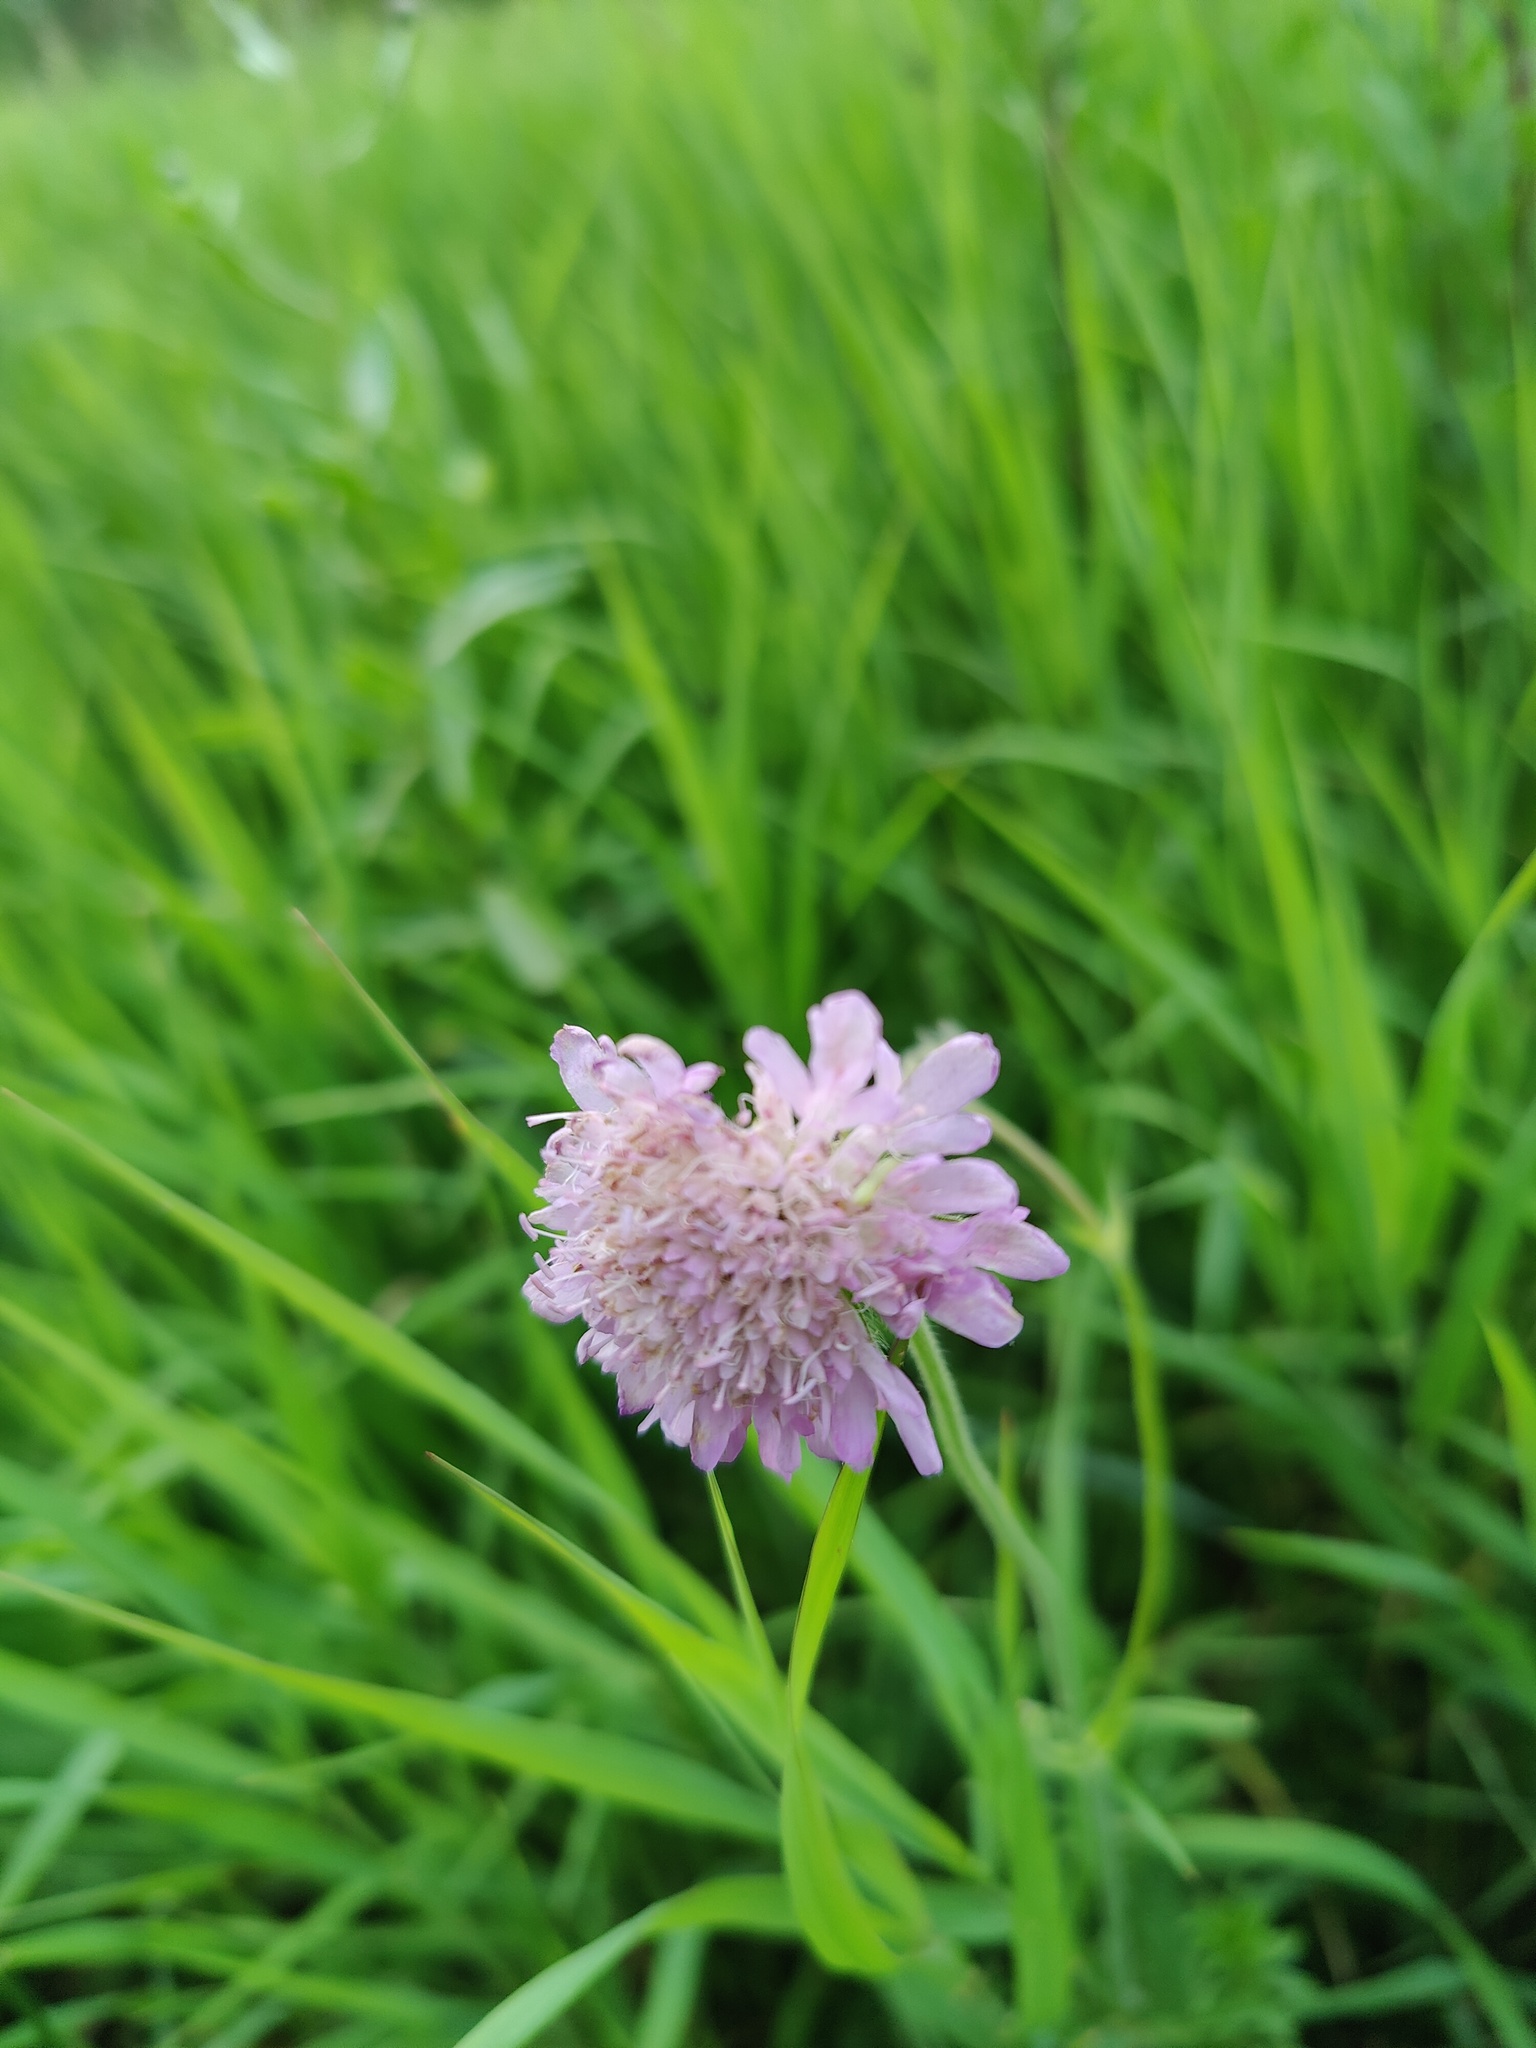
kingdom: Plantae
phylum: Tracheophyta
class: Magnoliopsida
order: Dipsacales
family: Caprifoliaceae
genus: Knautia
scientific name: Knautia arvensis
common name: Field scabiosa
